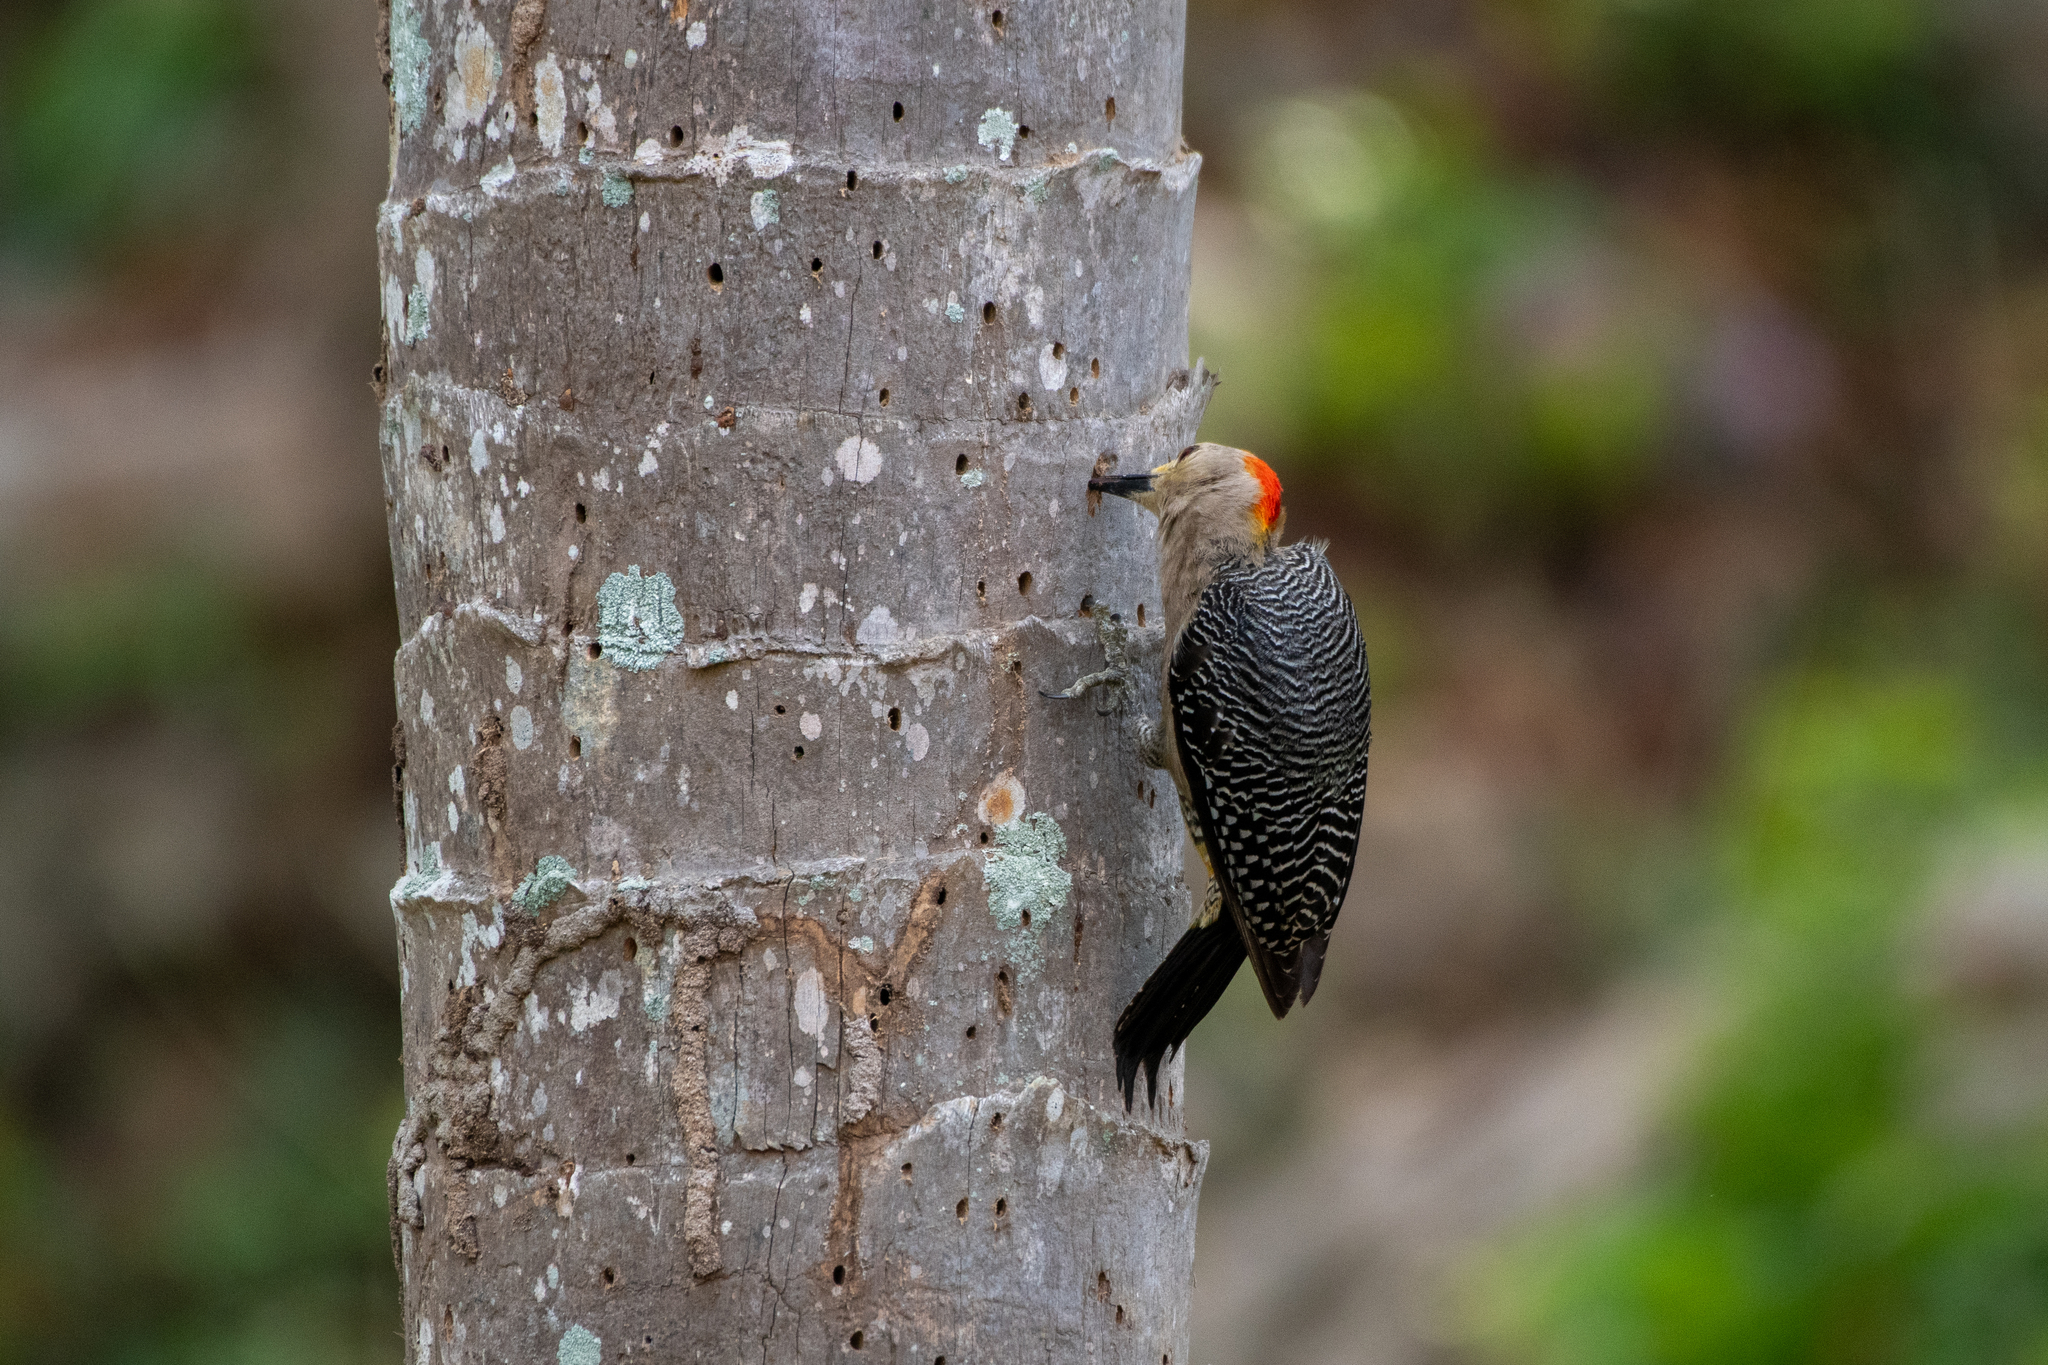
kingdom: Animalia
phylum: Chordata
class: Aves
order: Piciformes
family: Picidae
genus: Melanerpes
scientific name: Melanerpes santacruzi
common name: Velasquez's woodpecker
